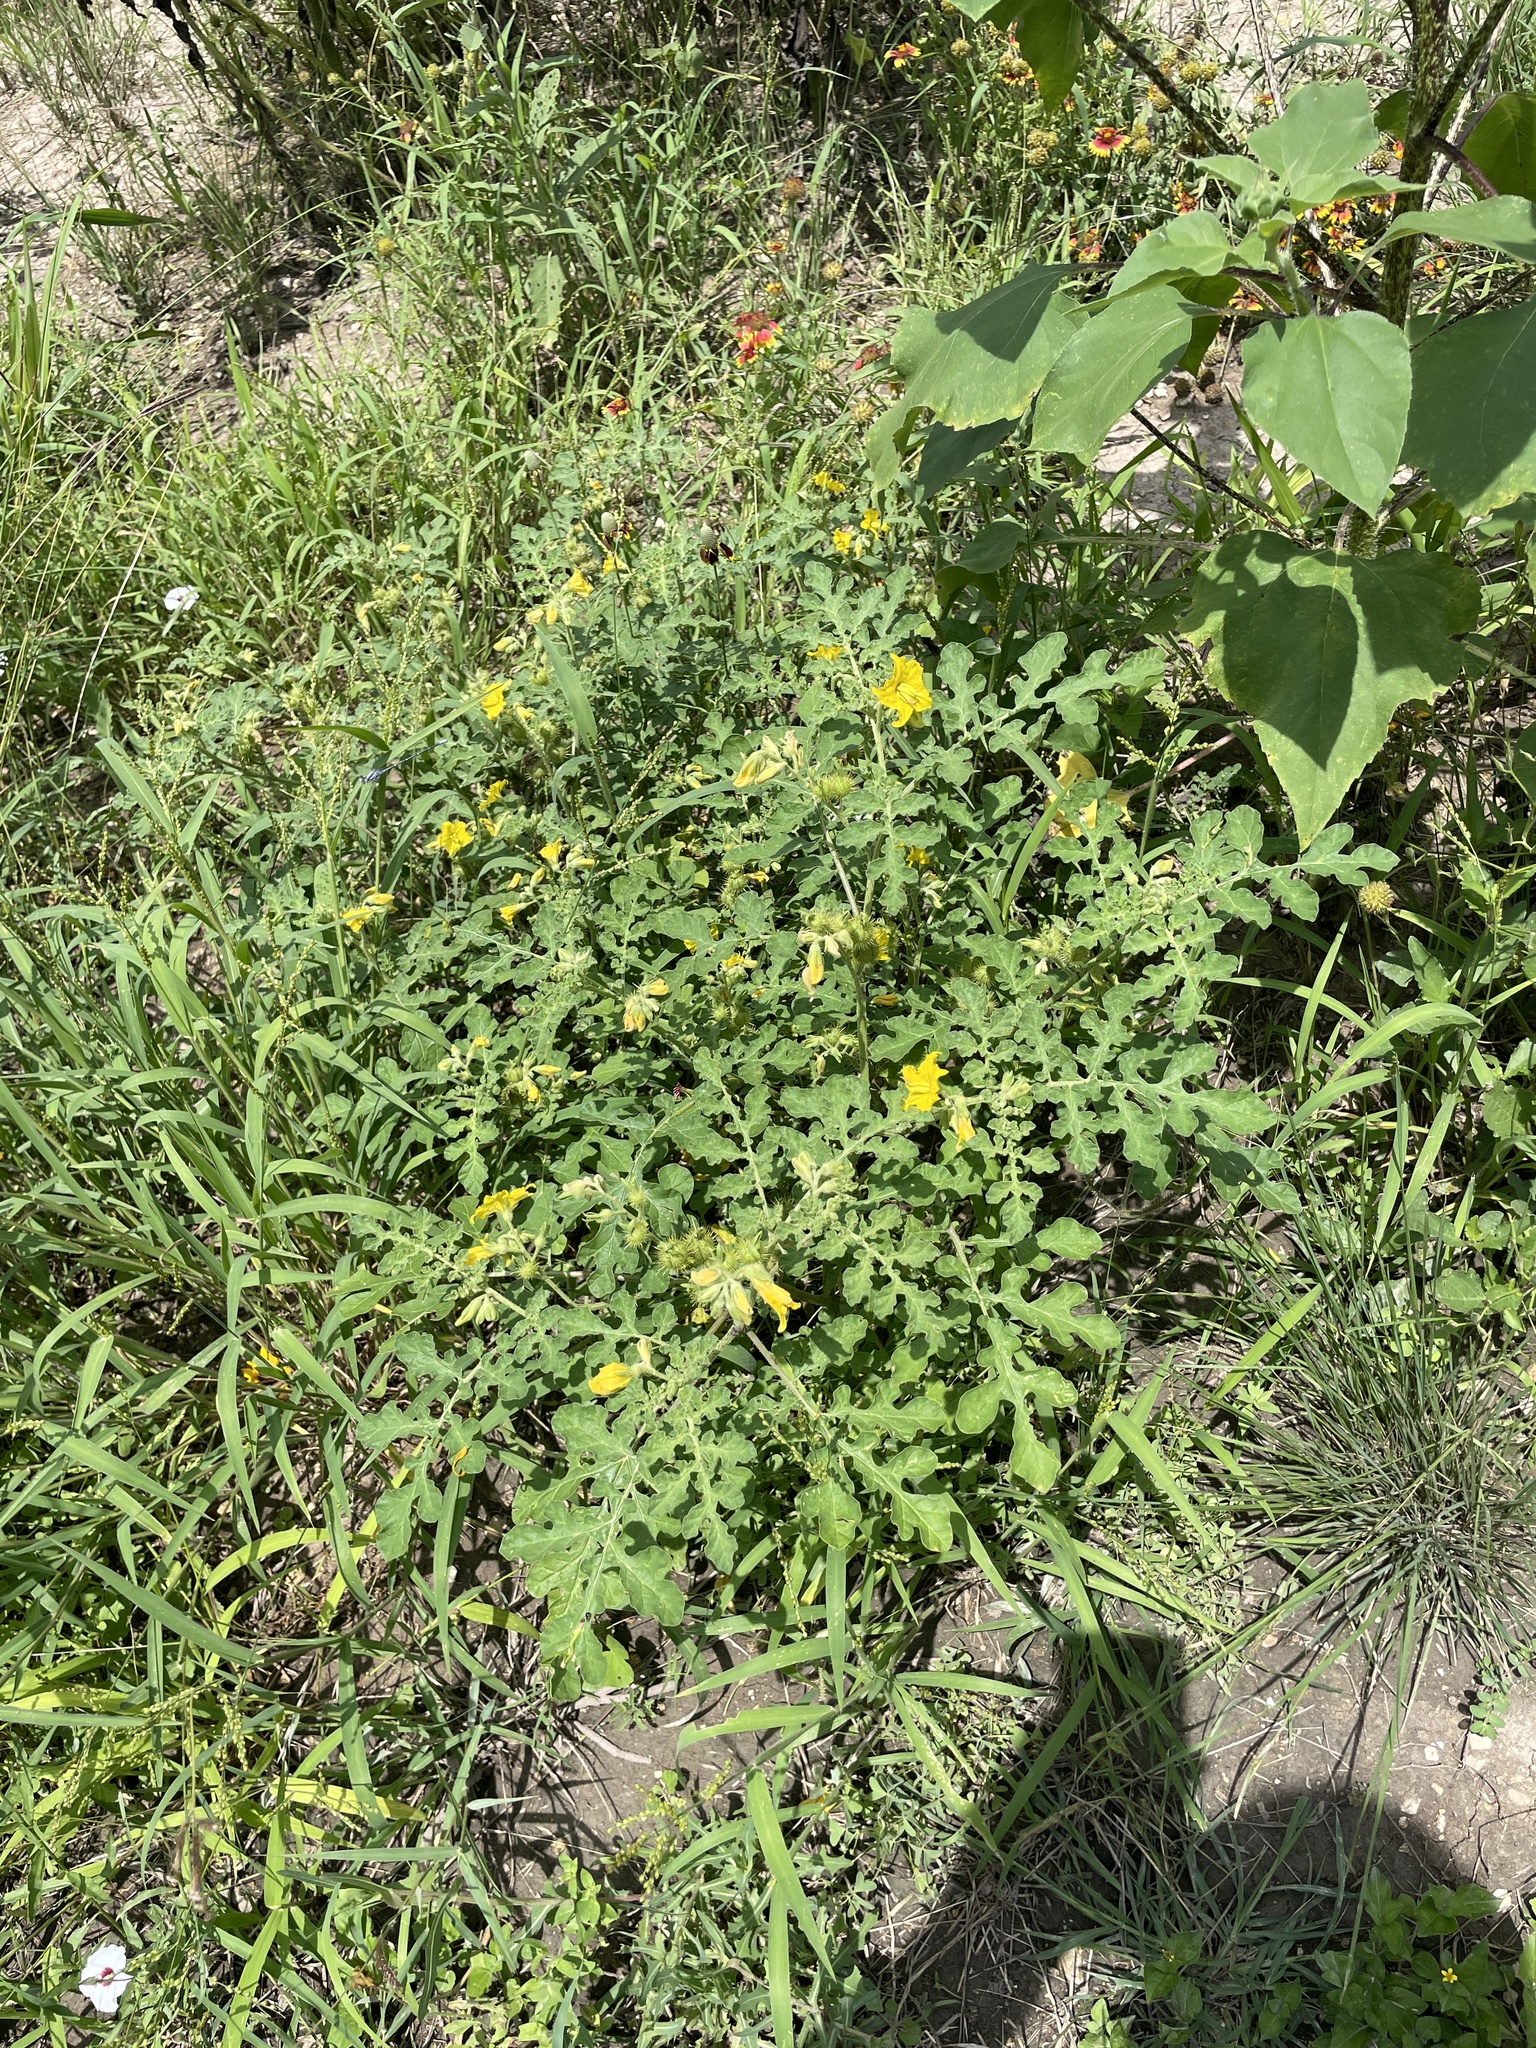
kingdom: Plantae
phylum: Tracheophyta
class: Magnoliopsida
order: Solanales
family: Solanaceae
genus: Solanum
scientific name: Solanum angustifolium
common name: Buffalobur nightshade
